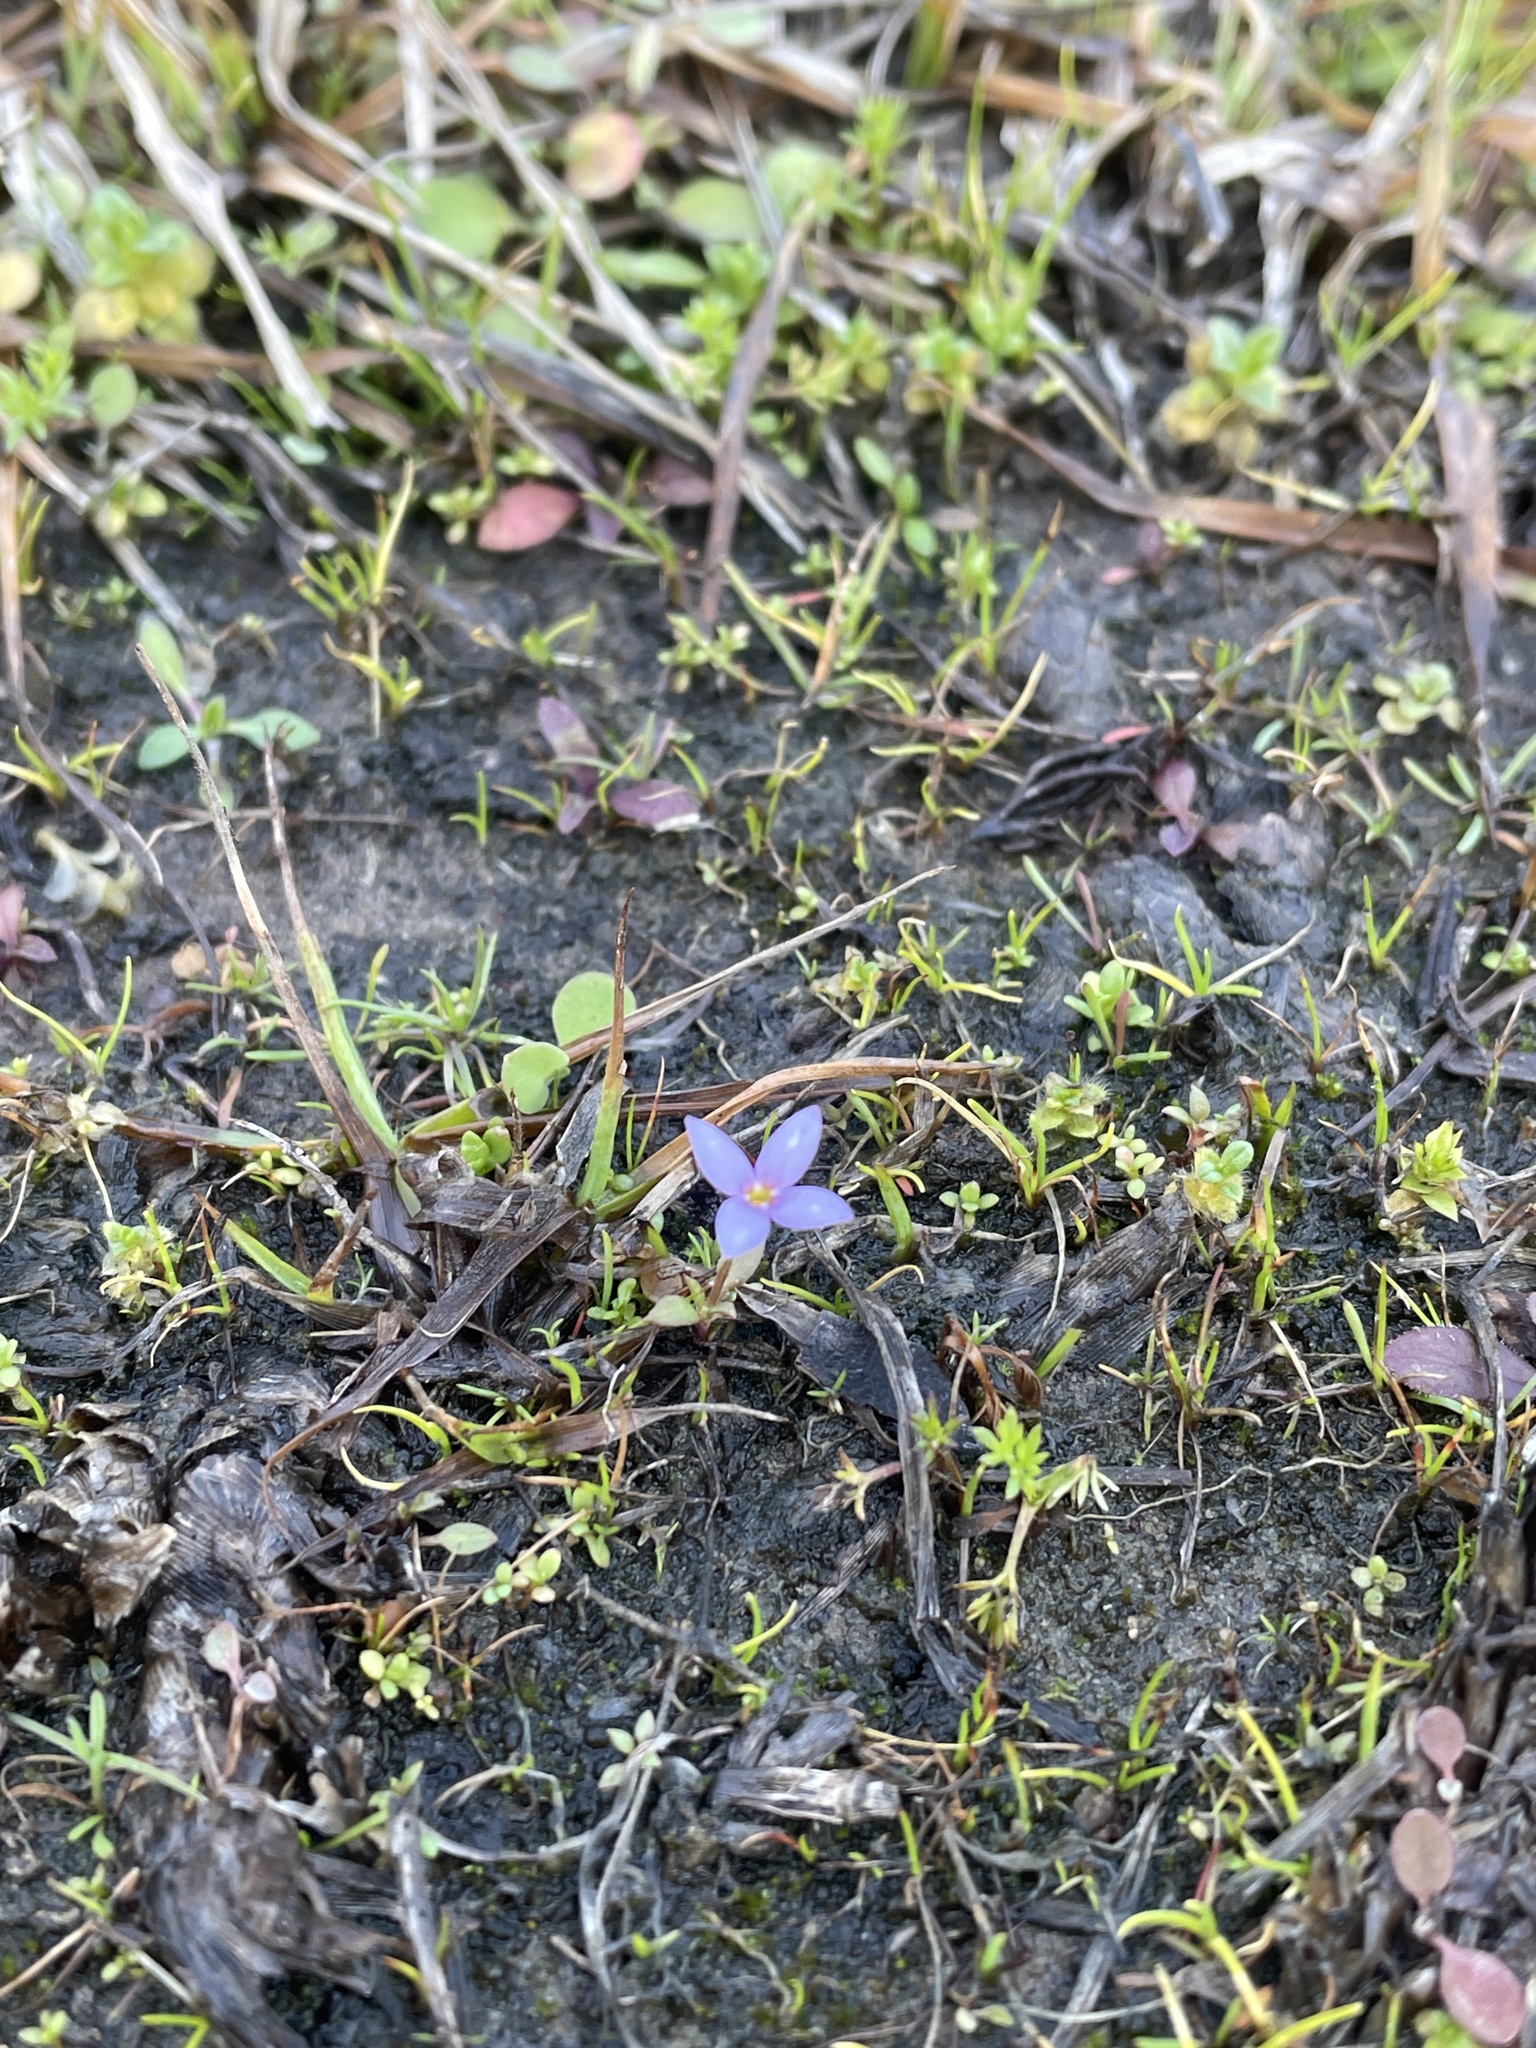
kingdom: Plantae
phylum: Tracheophyta
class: Magnoliopsida
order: Gentianales
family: Rubiaceae
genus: Houstonia
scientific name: Houstonia pusilla
